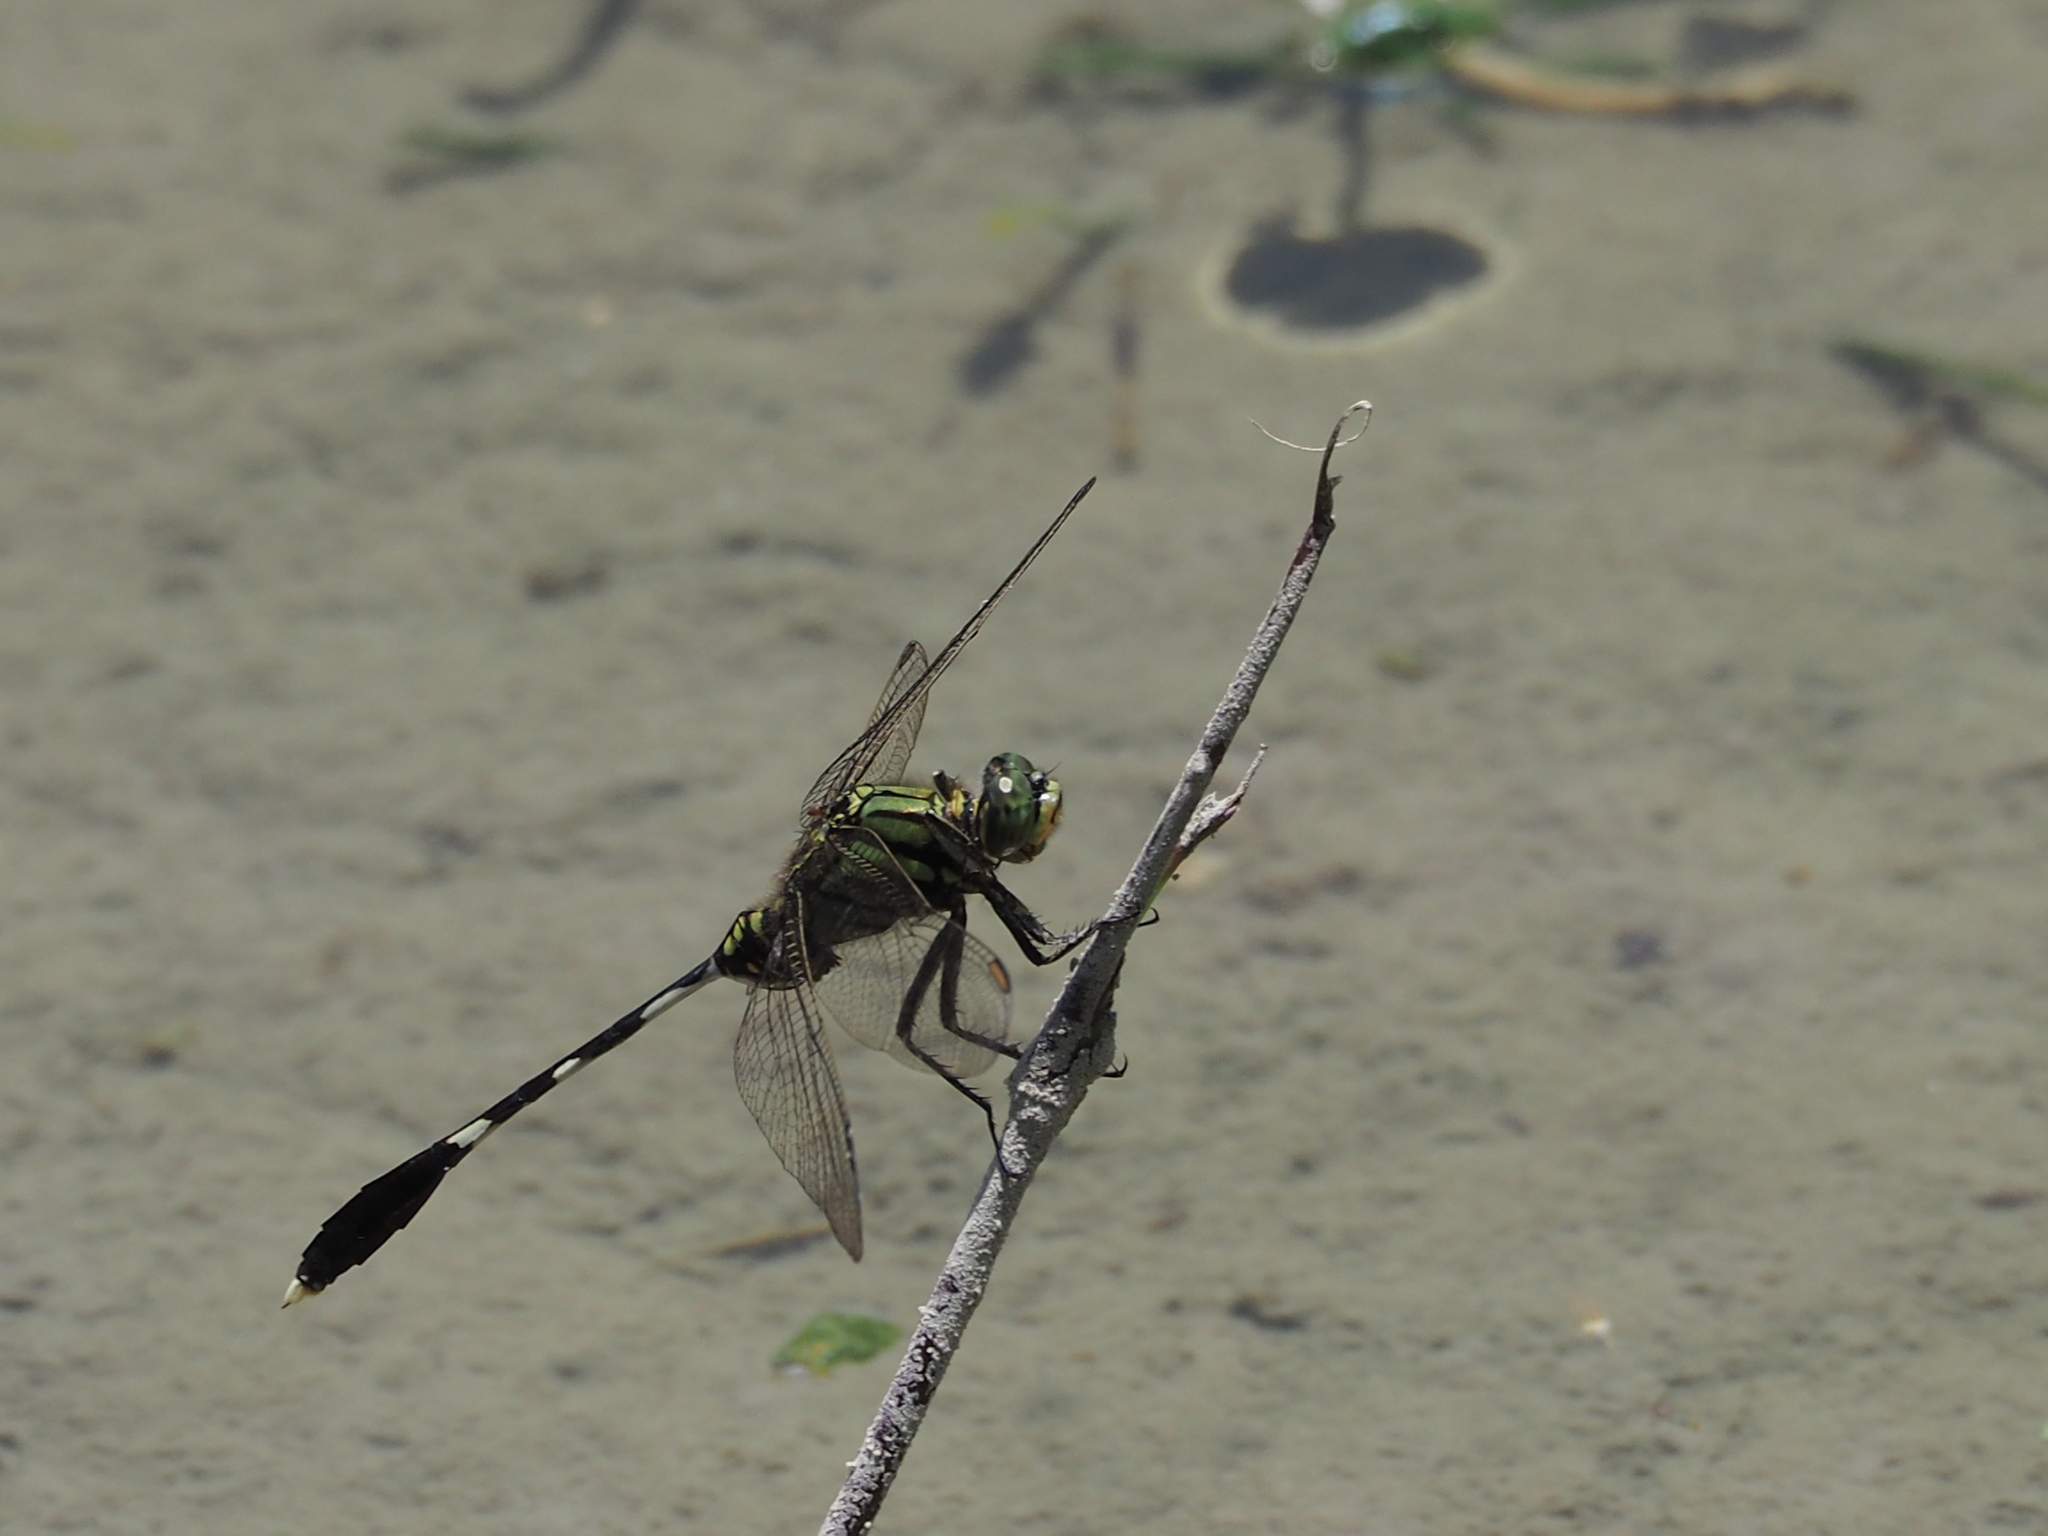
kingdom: Animalia
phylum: Arthropoda
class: Insecta
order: Odonata
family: Libellulidae
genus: Orthetrum
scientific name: Orthetrum sabina
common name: Slender skimmer
